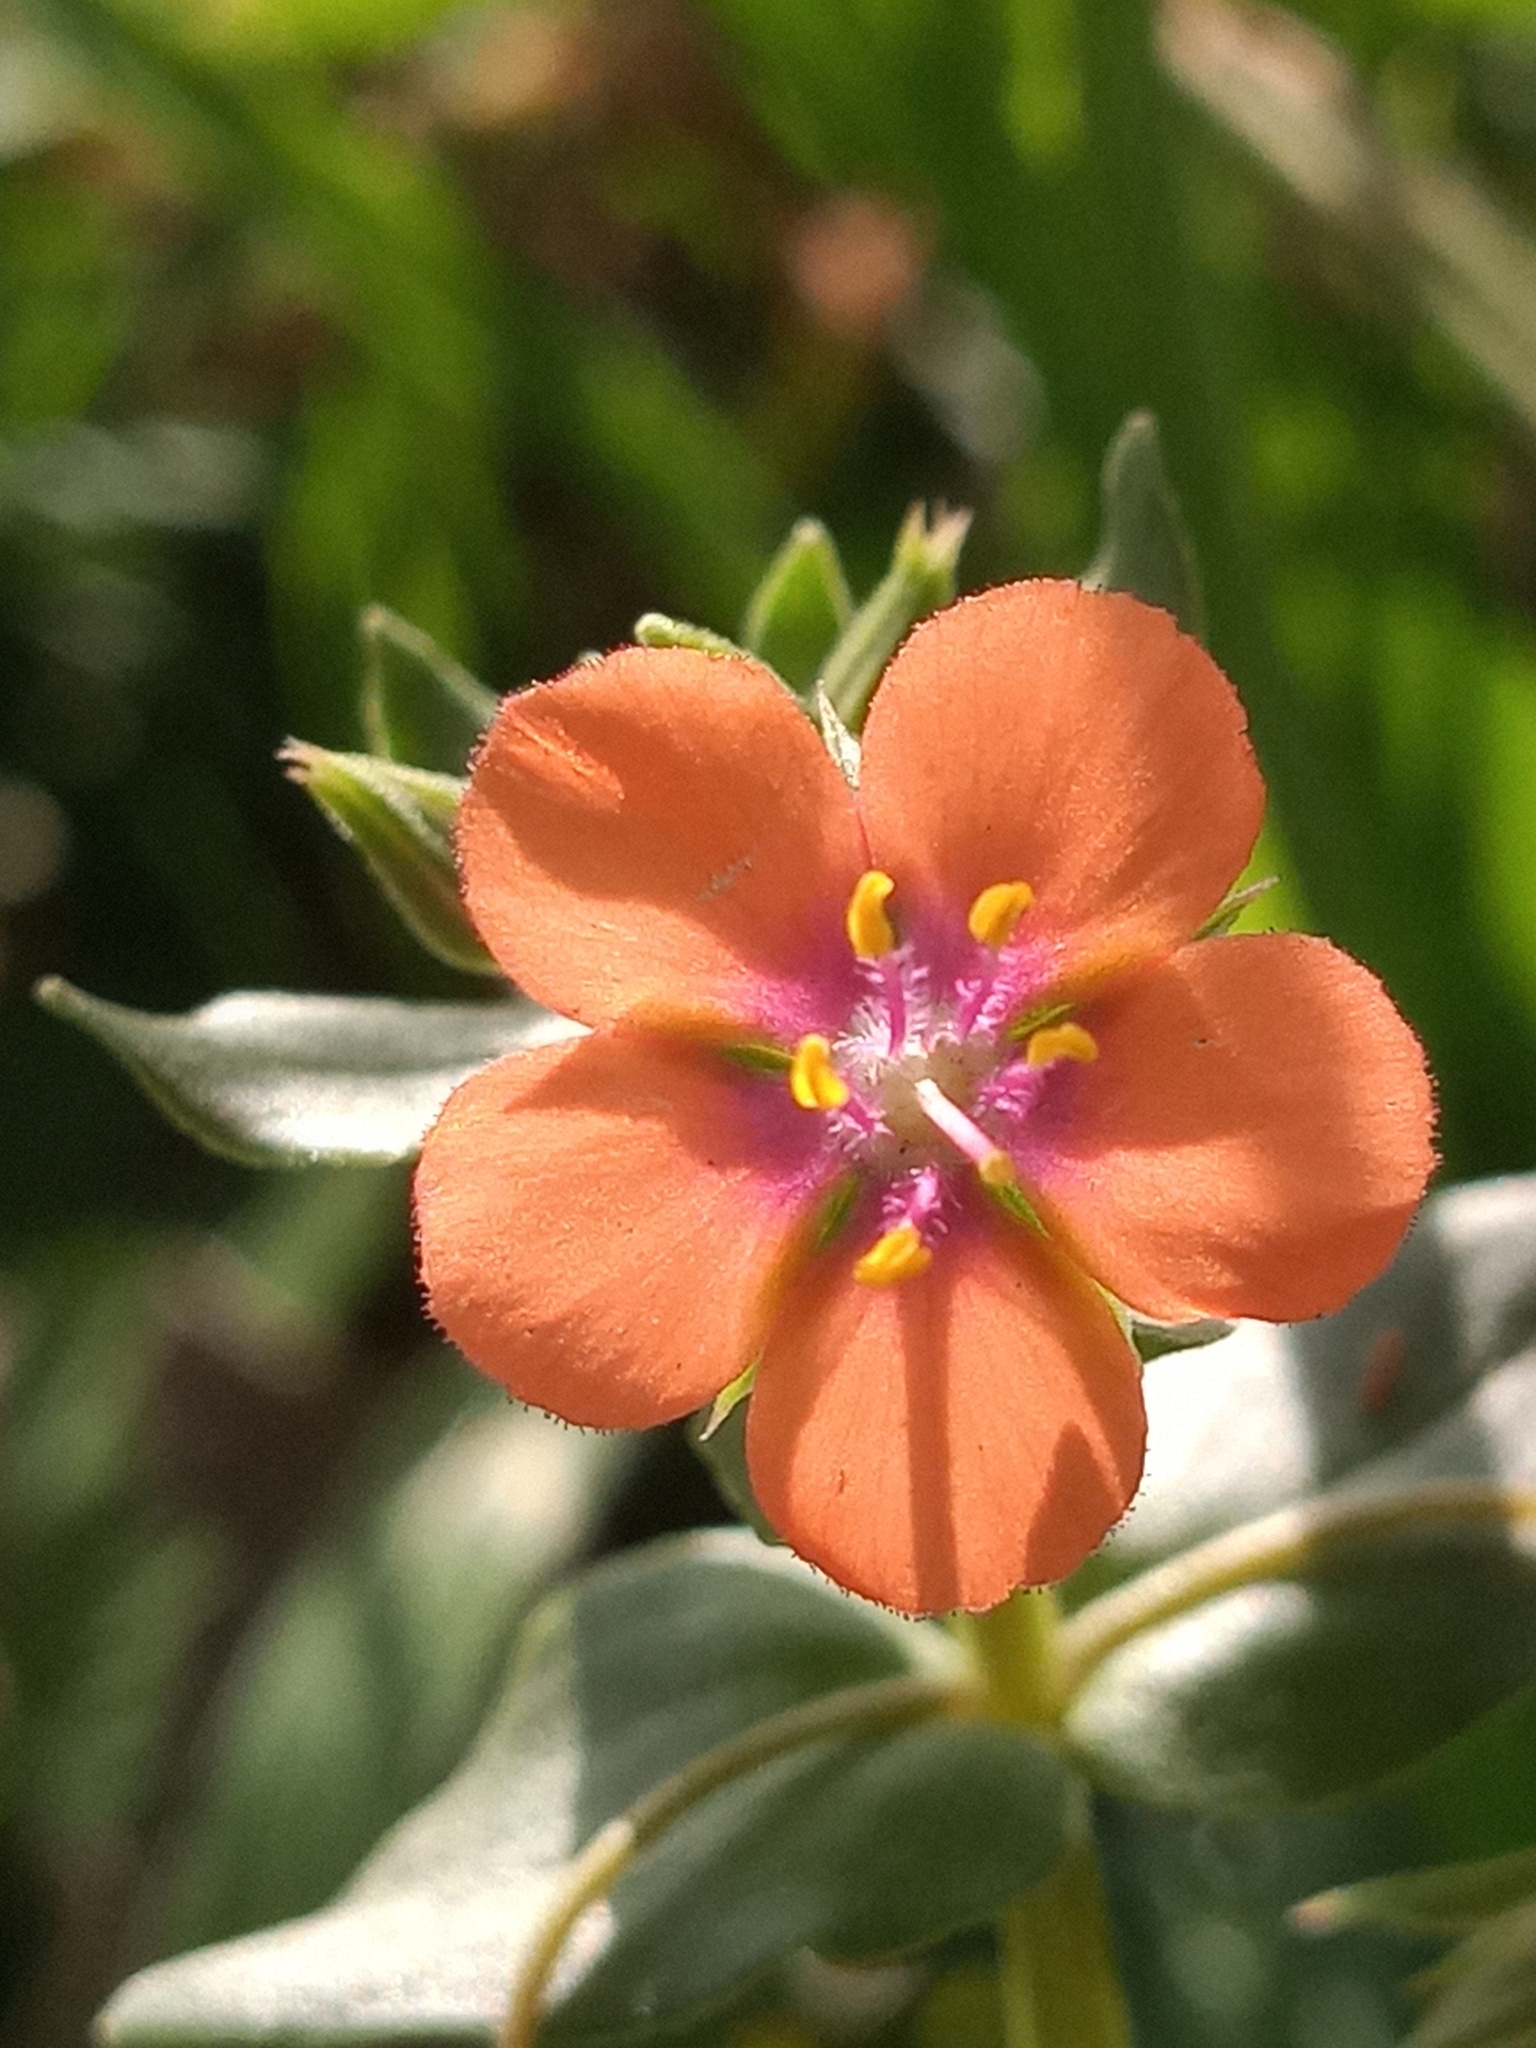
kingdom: Plantae
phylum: Tracheophyta
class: Magnoliopsida
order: Ericales
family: Primulaceae
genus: Lysimachia
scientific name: Lysimachia arvensis
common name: Scarlet pimpernel
